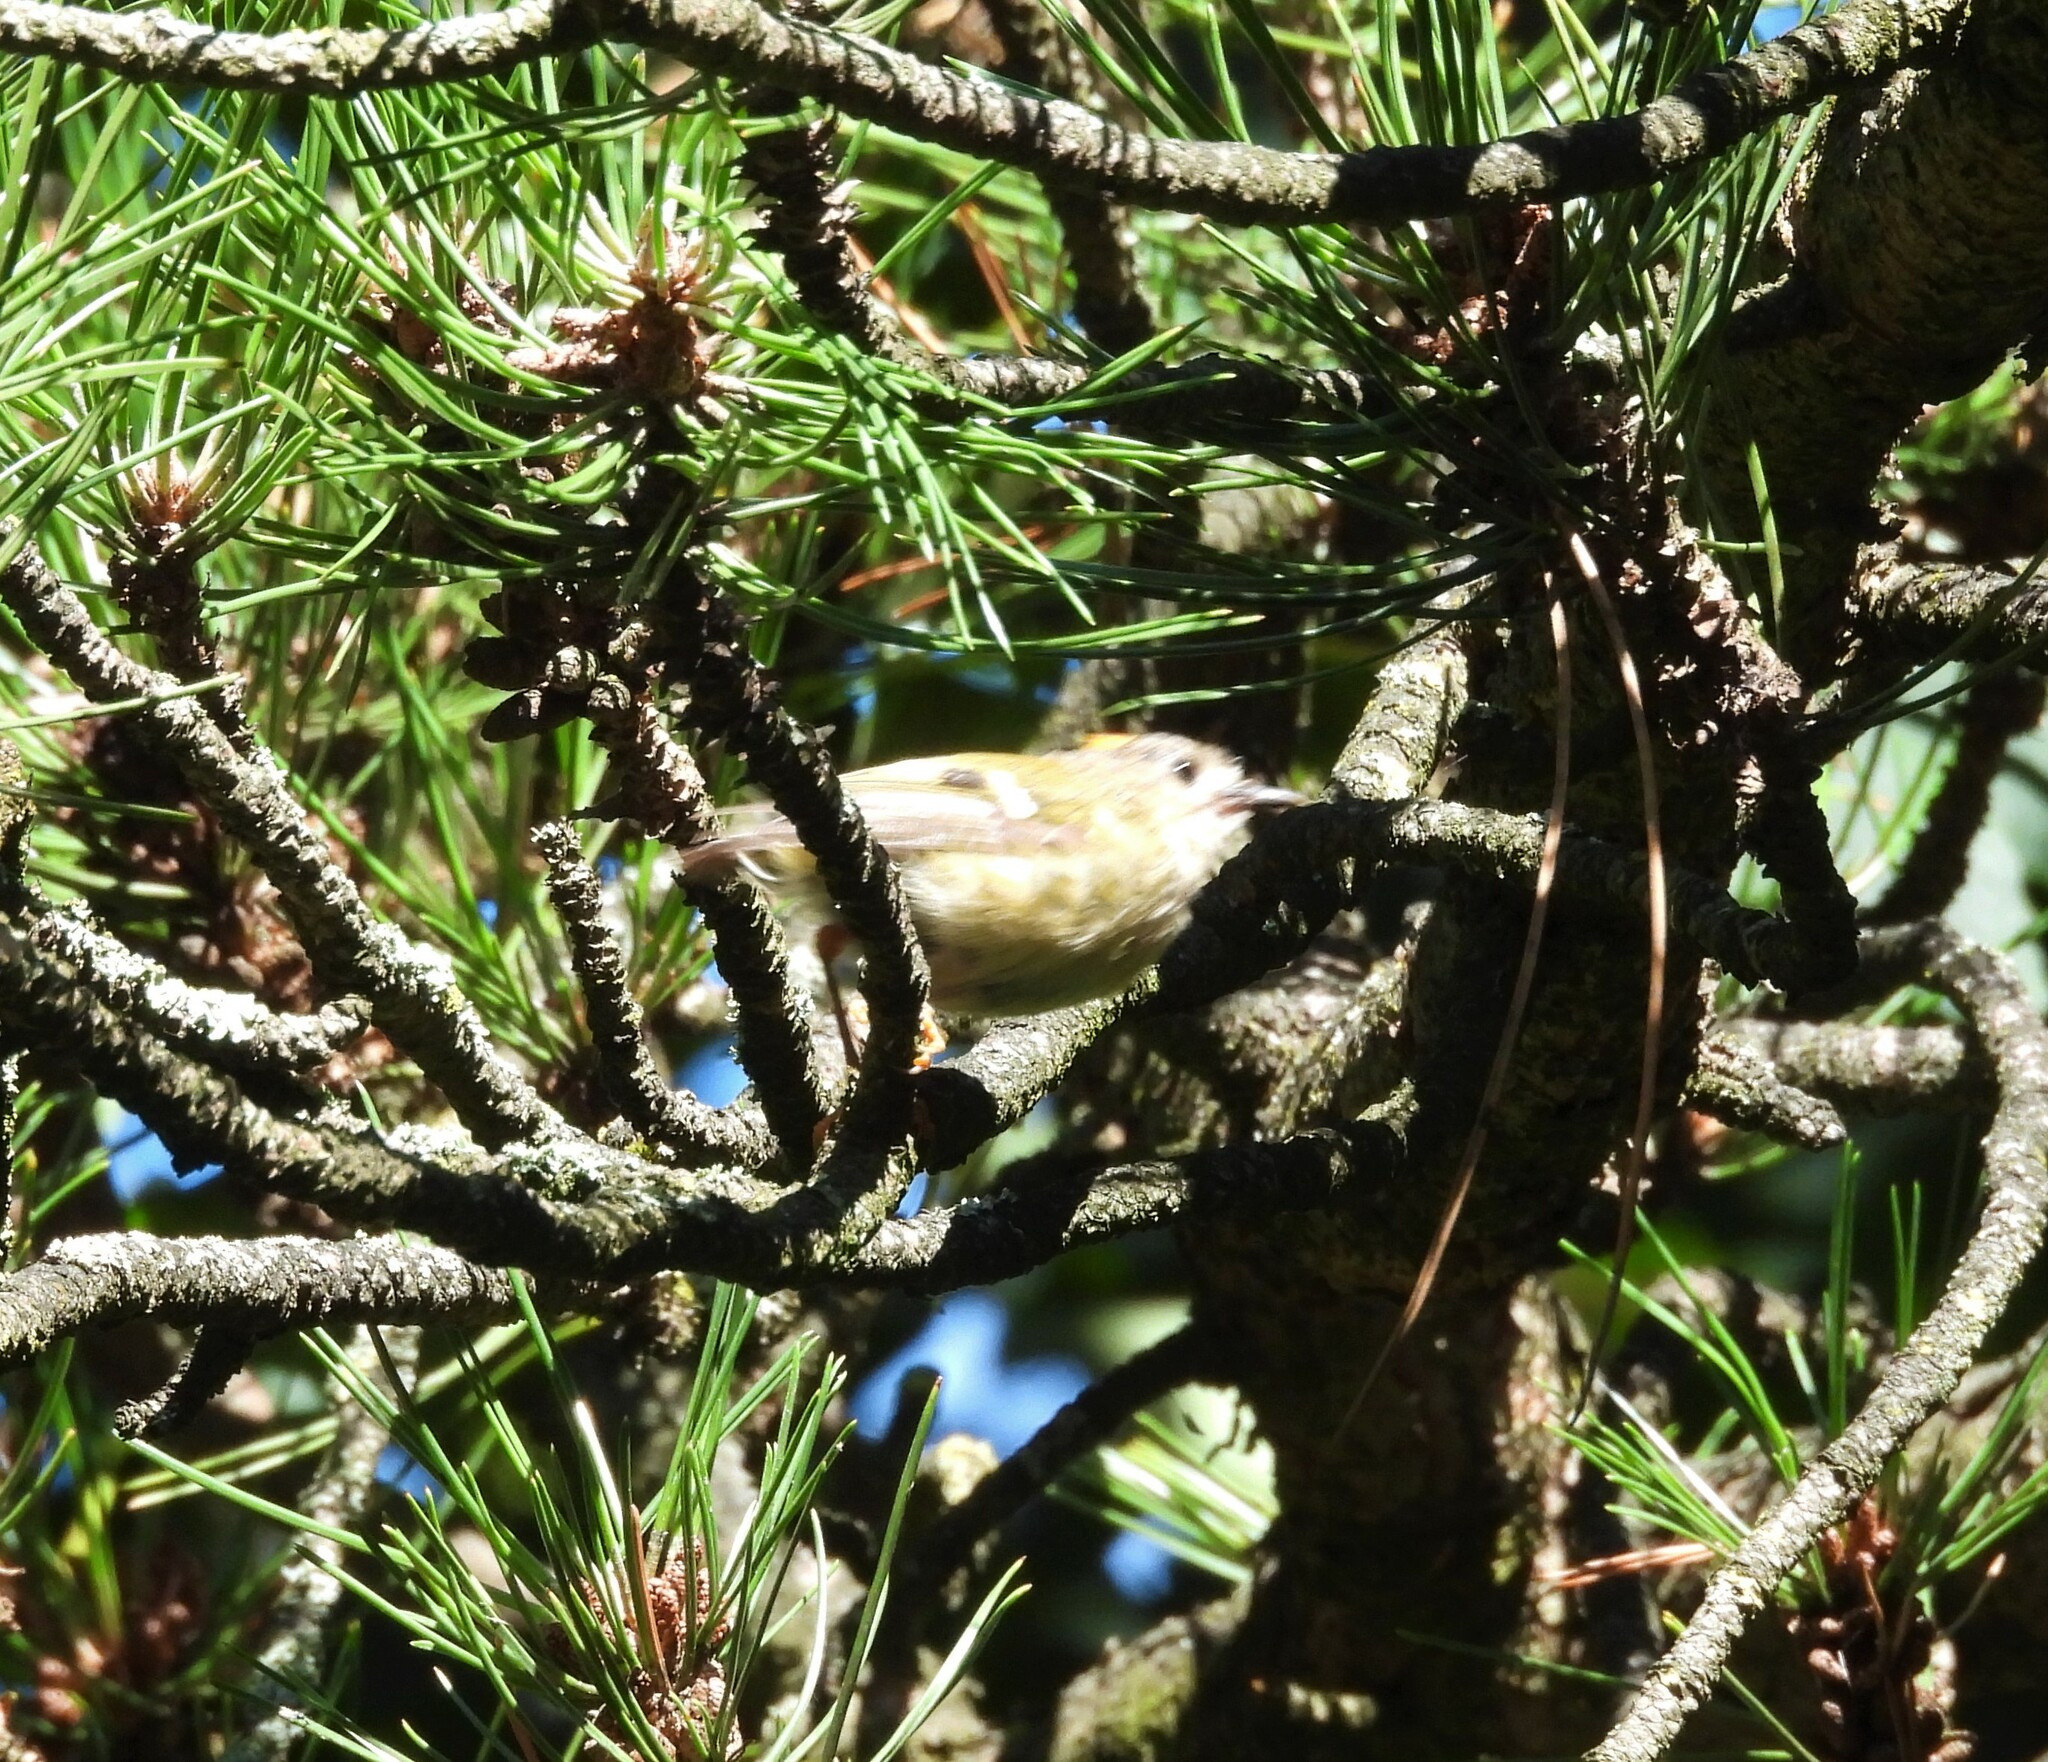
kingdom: Animalia
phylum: Chordata
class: Aves
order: Passeriformes
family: Regulidae
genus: Regulus
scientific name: Regulus regulus
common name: Goldcrest
